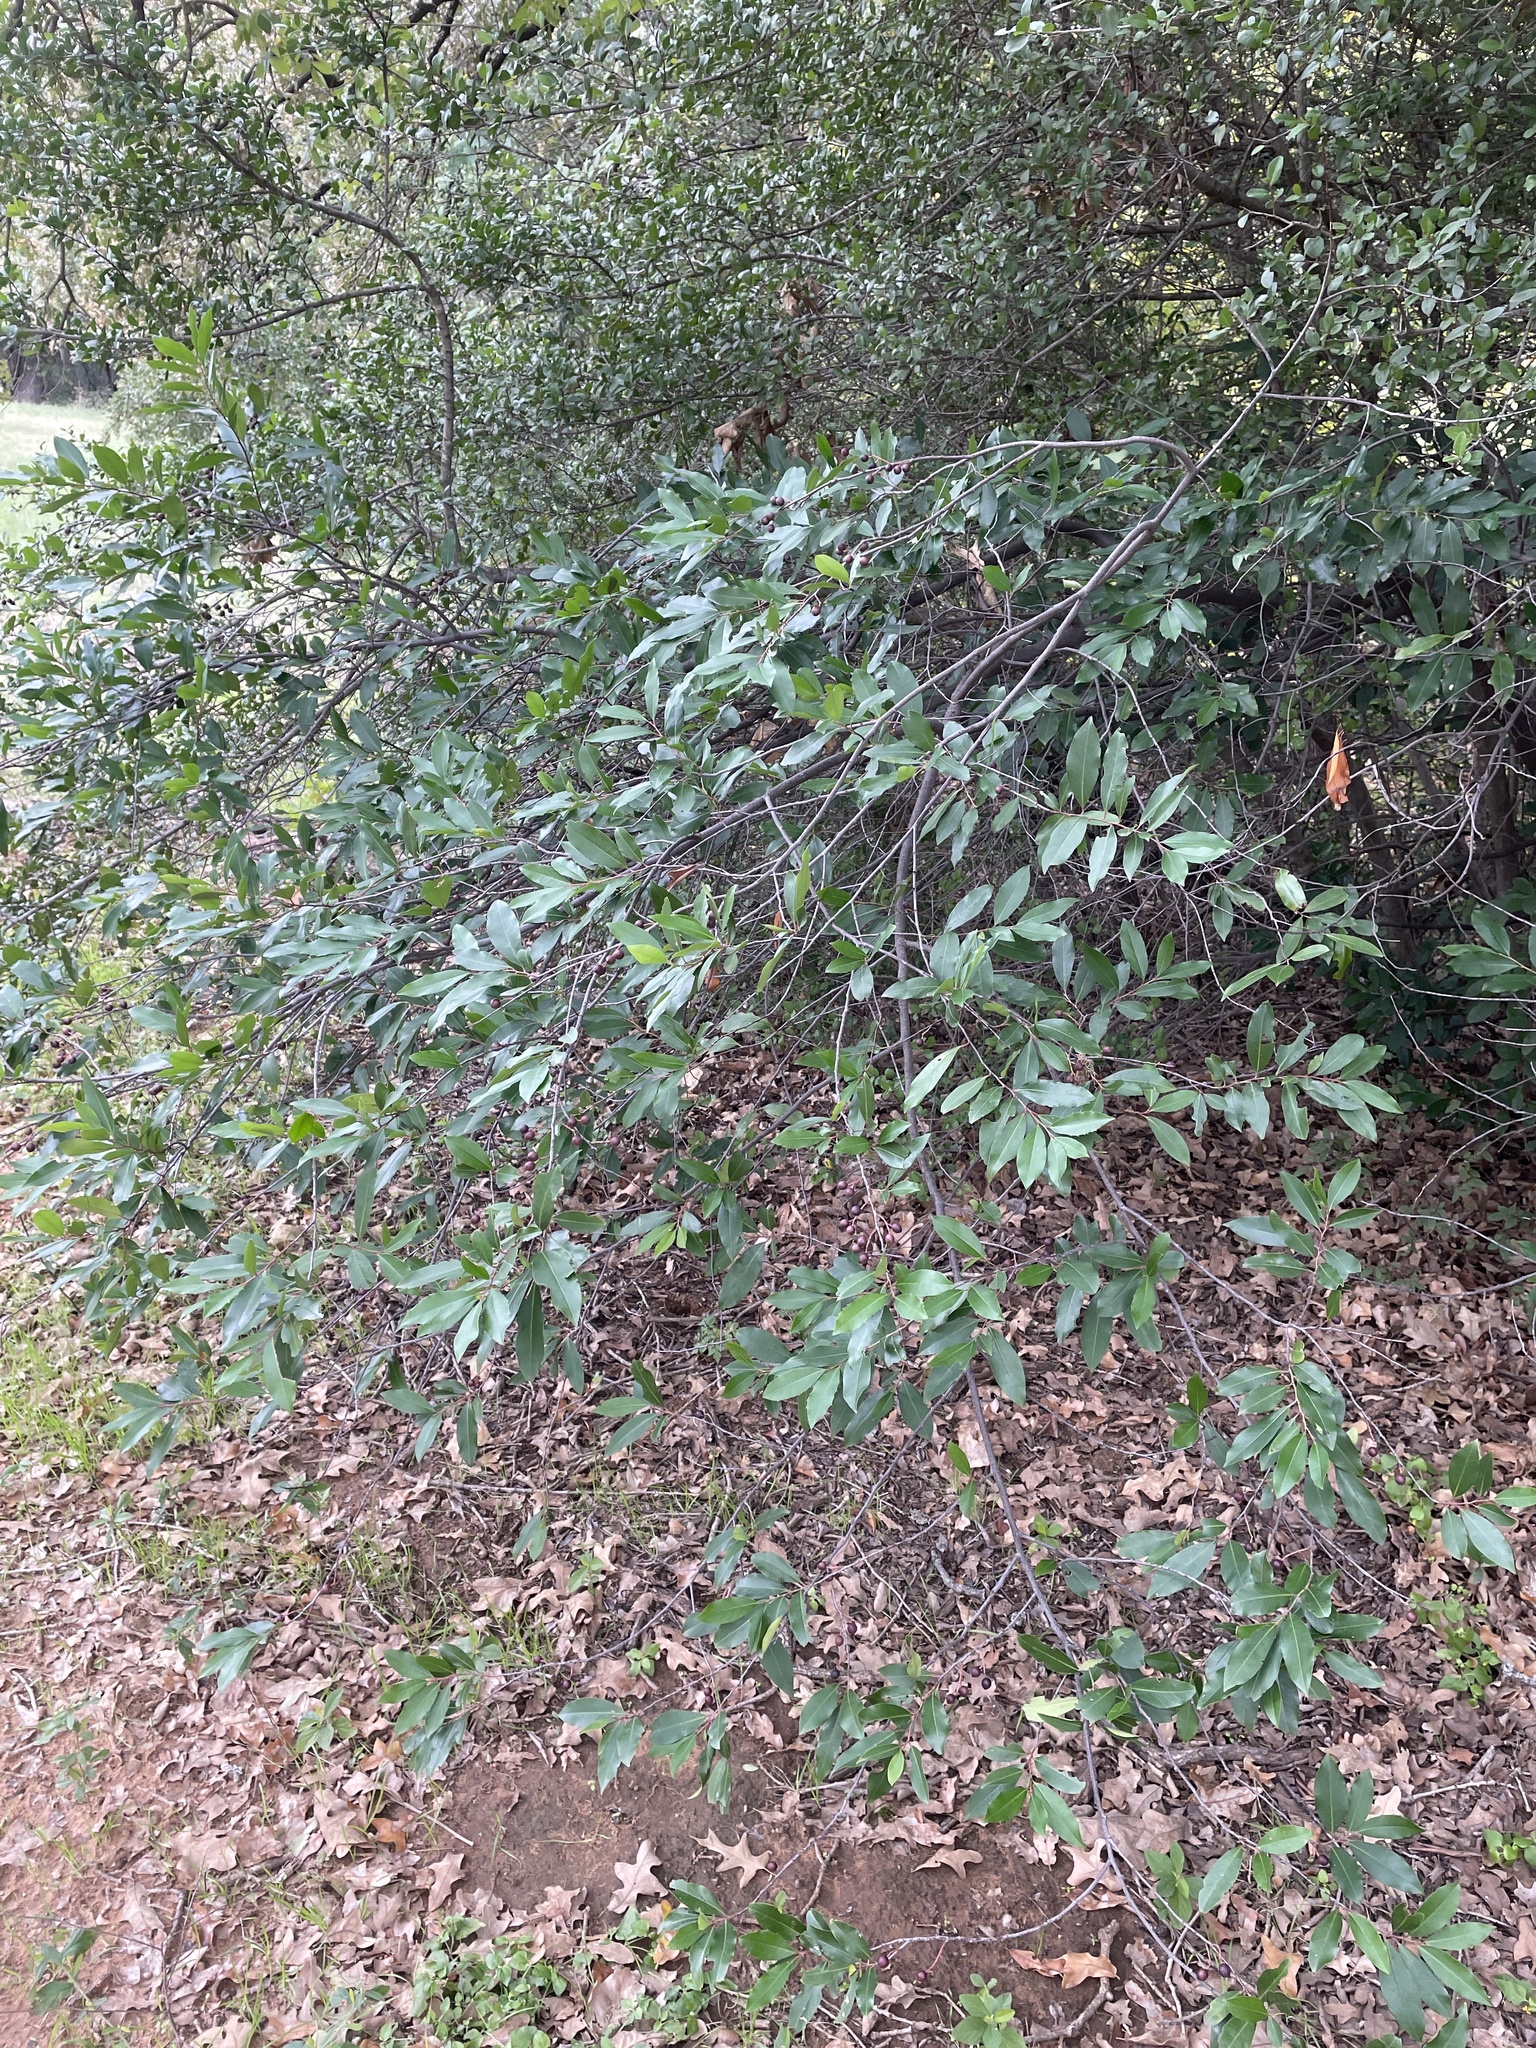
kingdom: Plantae
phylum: Tracheophyta
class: Magnoliopsida
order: Rosales
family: Rosaceae
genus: Prunus
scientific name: Prunus caroliniana
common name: Carolina laurel cherry
